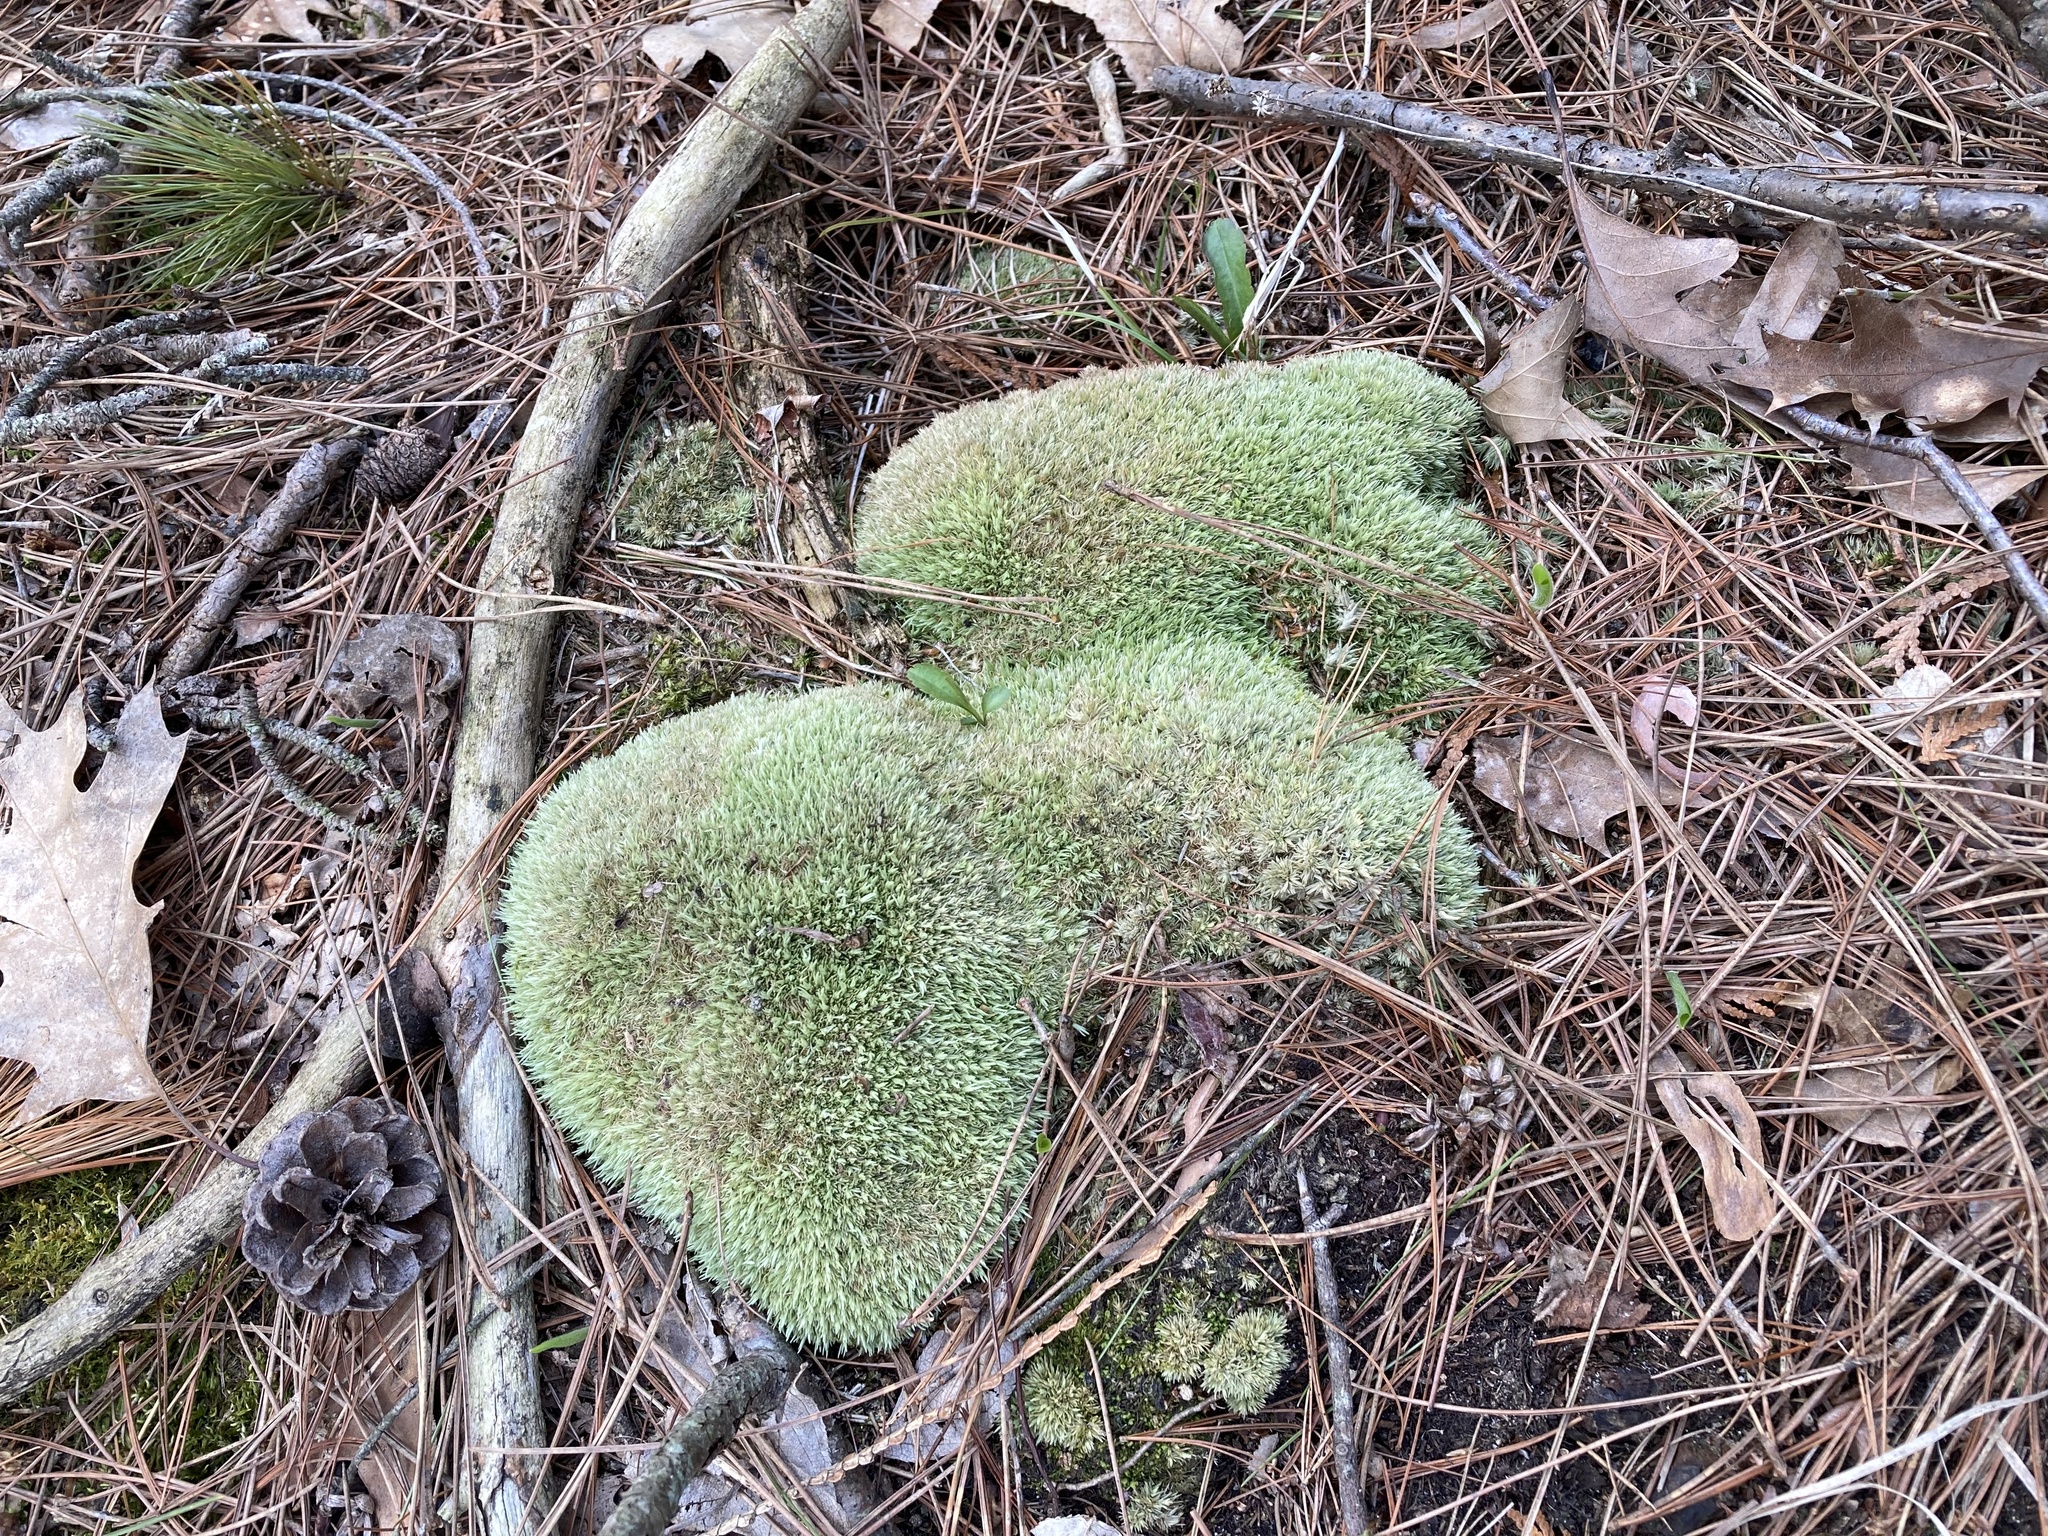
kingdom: Plantae
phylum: Bryophyta
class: Bryopsida
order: Dicranales
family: Leucobryaceae
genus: Leucobryum
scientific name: Leucobryum glaucum
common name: Large white-moss
